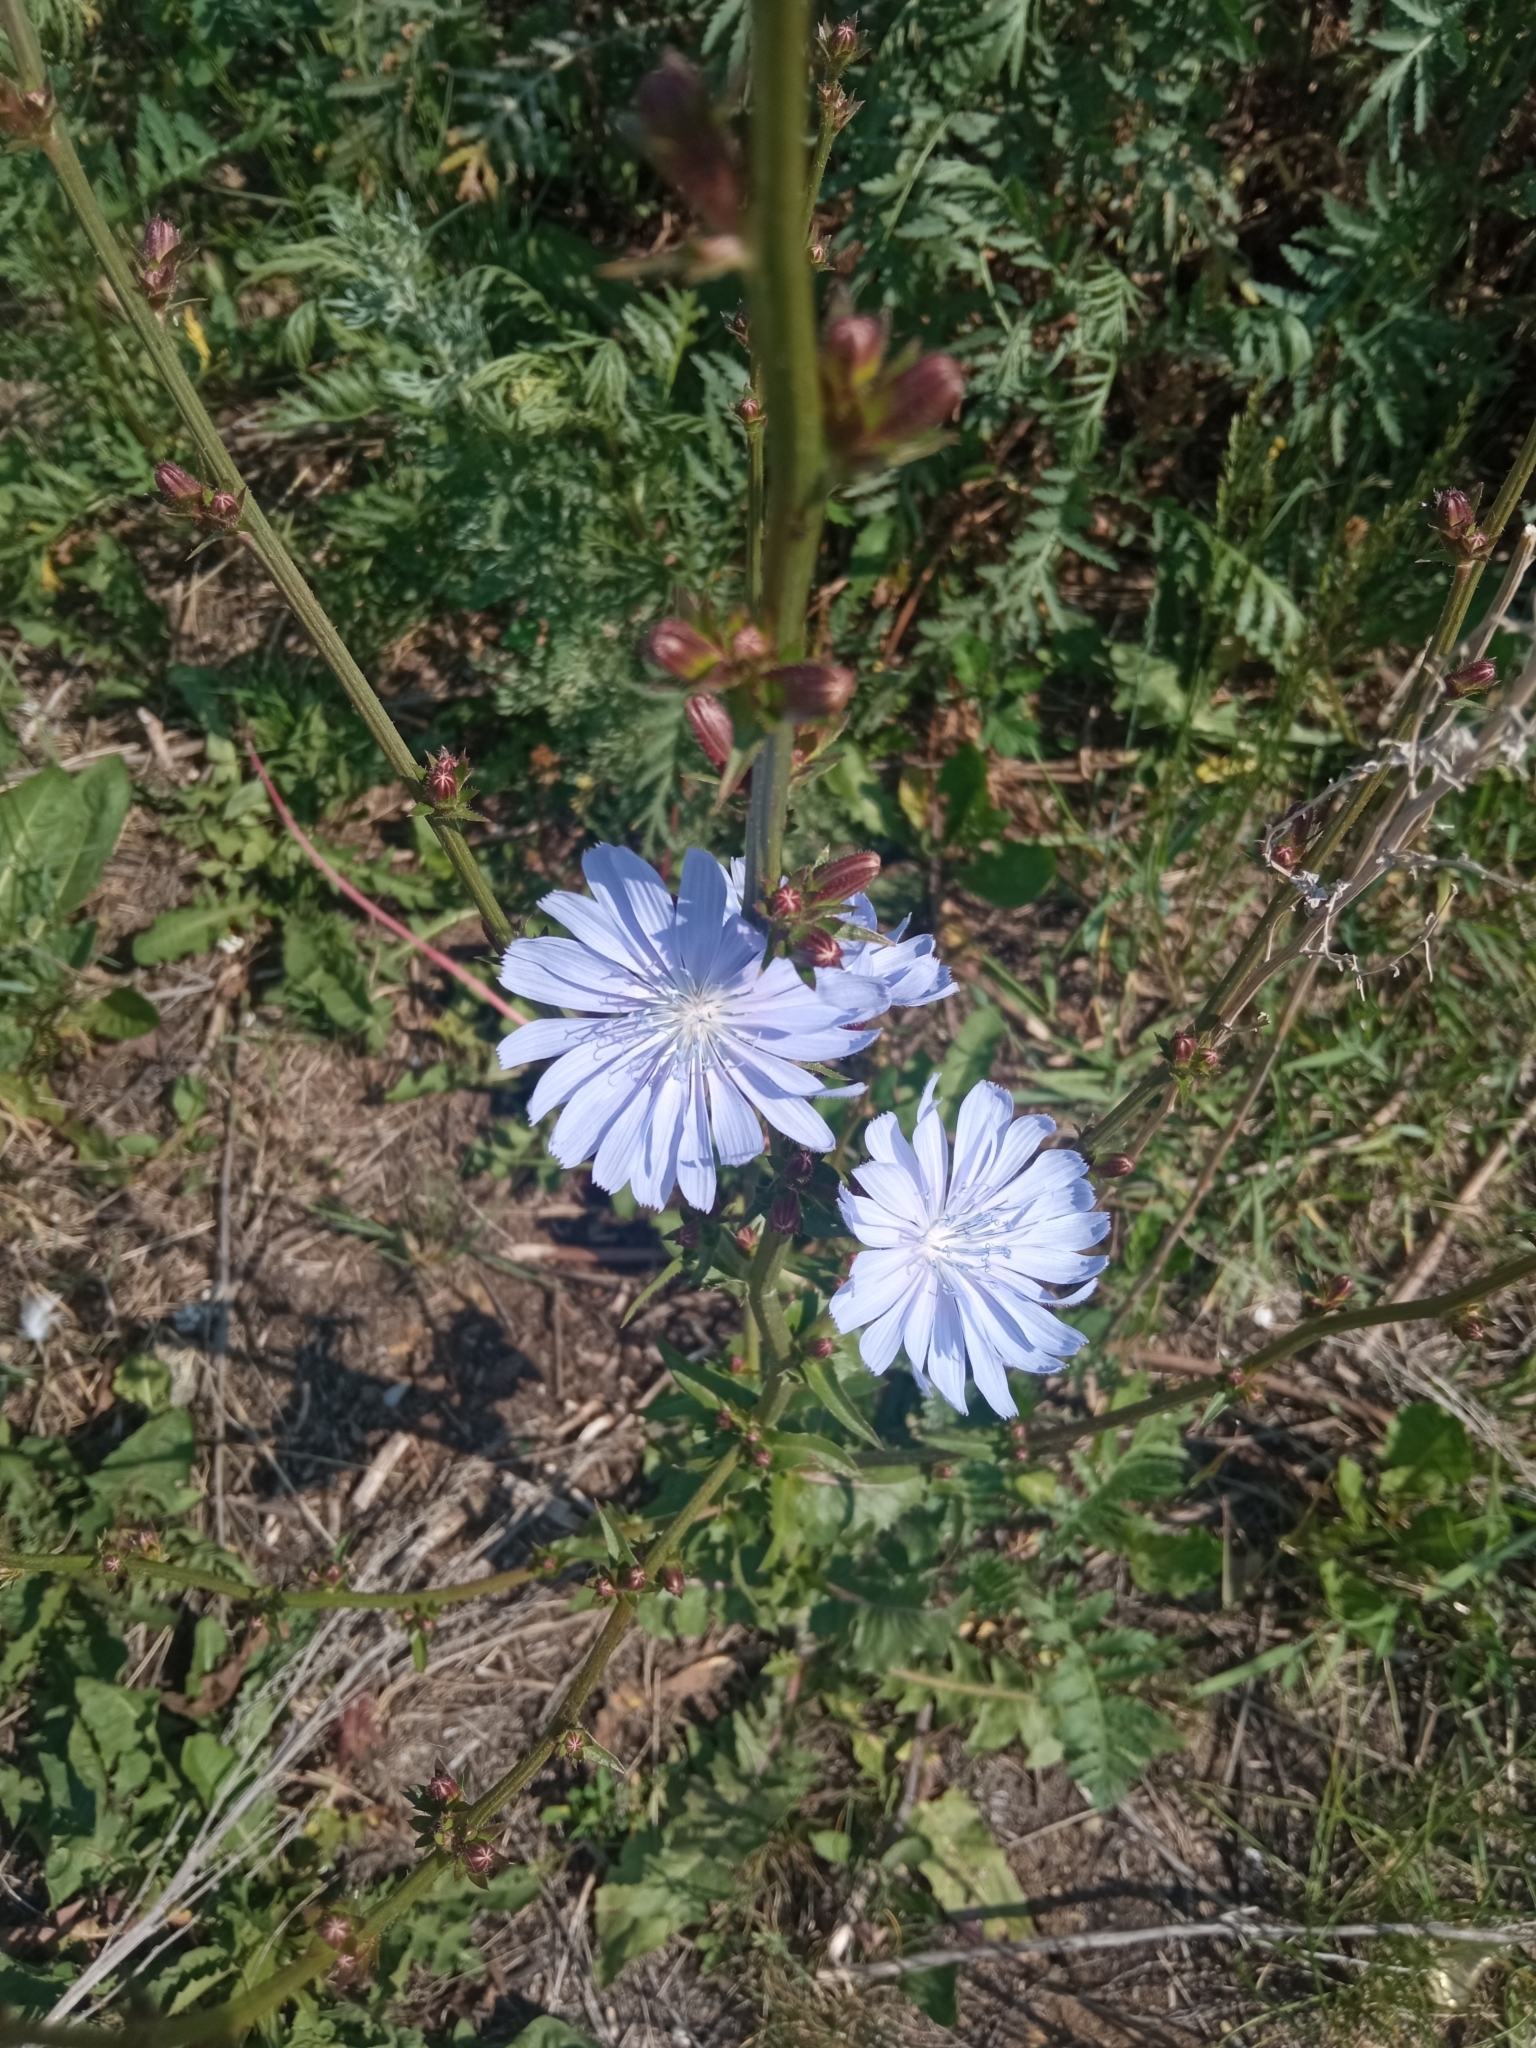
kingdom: Plantae
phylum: Tracheophyta
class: Magnoliopsida
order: Asterales
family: Asteraceae
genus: Cichorium
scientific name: Cichorium intybus
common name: Chicory
